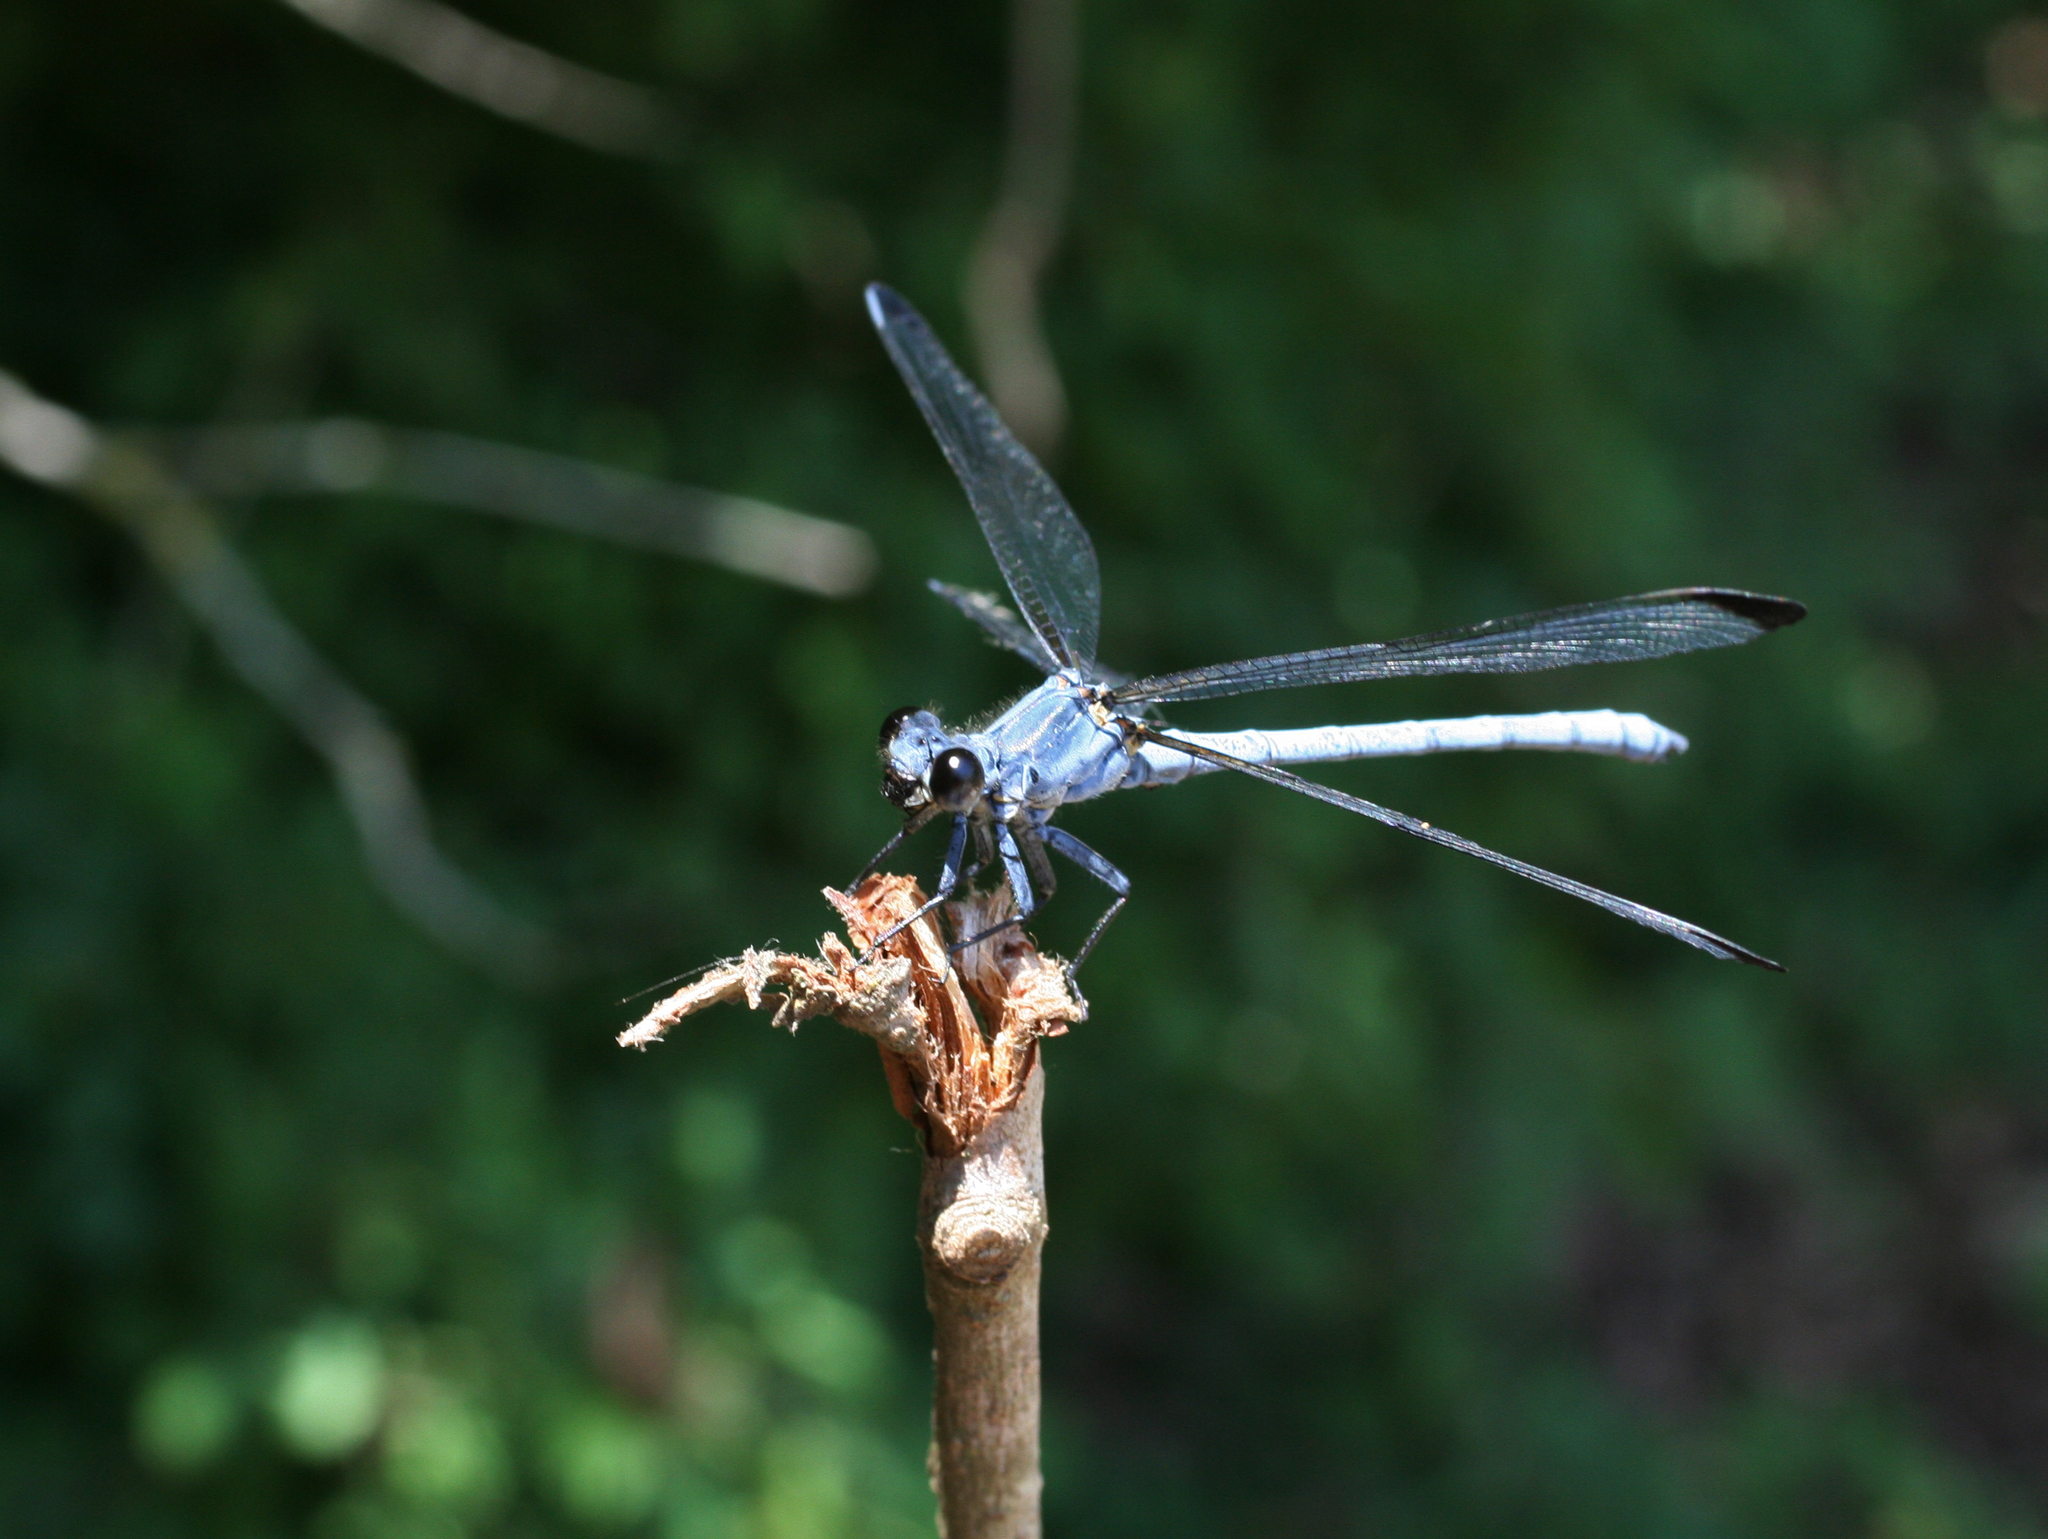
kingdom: Animalia
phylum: Arthropoda
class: Insecta
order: Odonata
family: Euphaeidae
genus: Epallage
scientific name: Epallage fatime
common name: Odalisque
